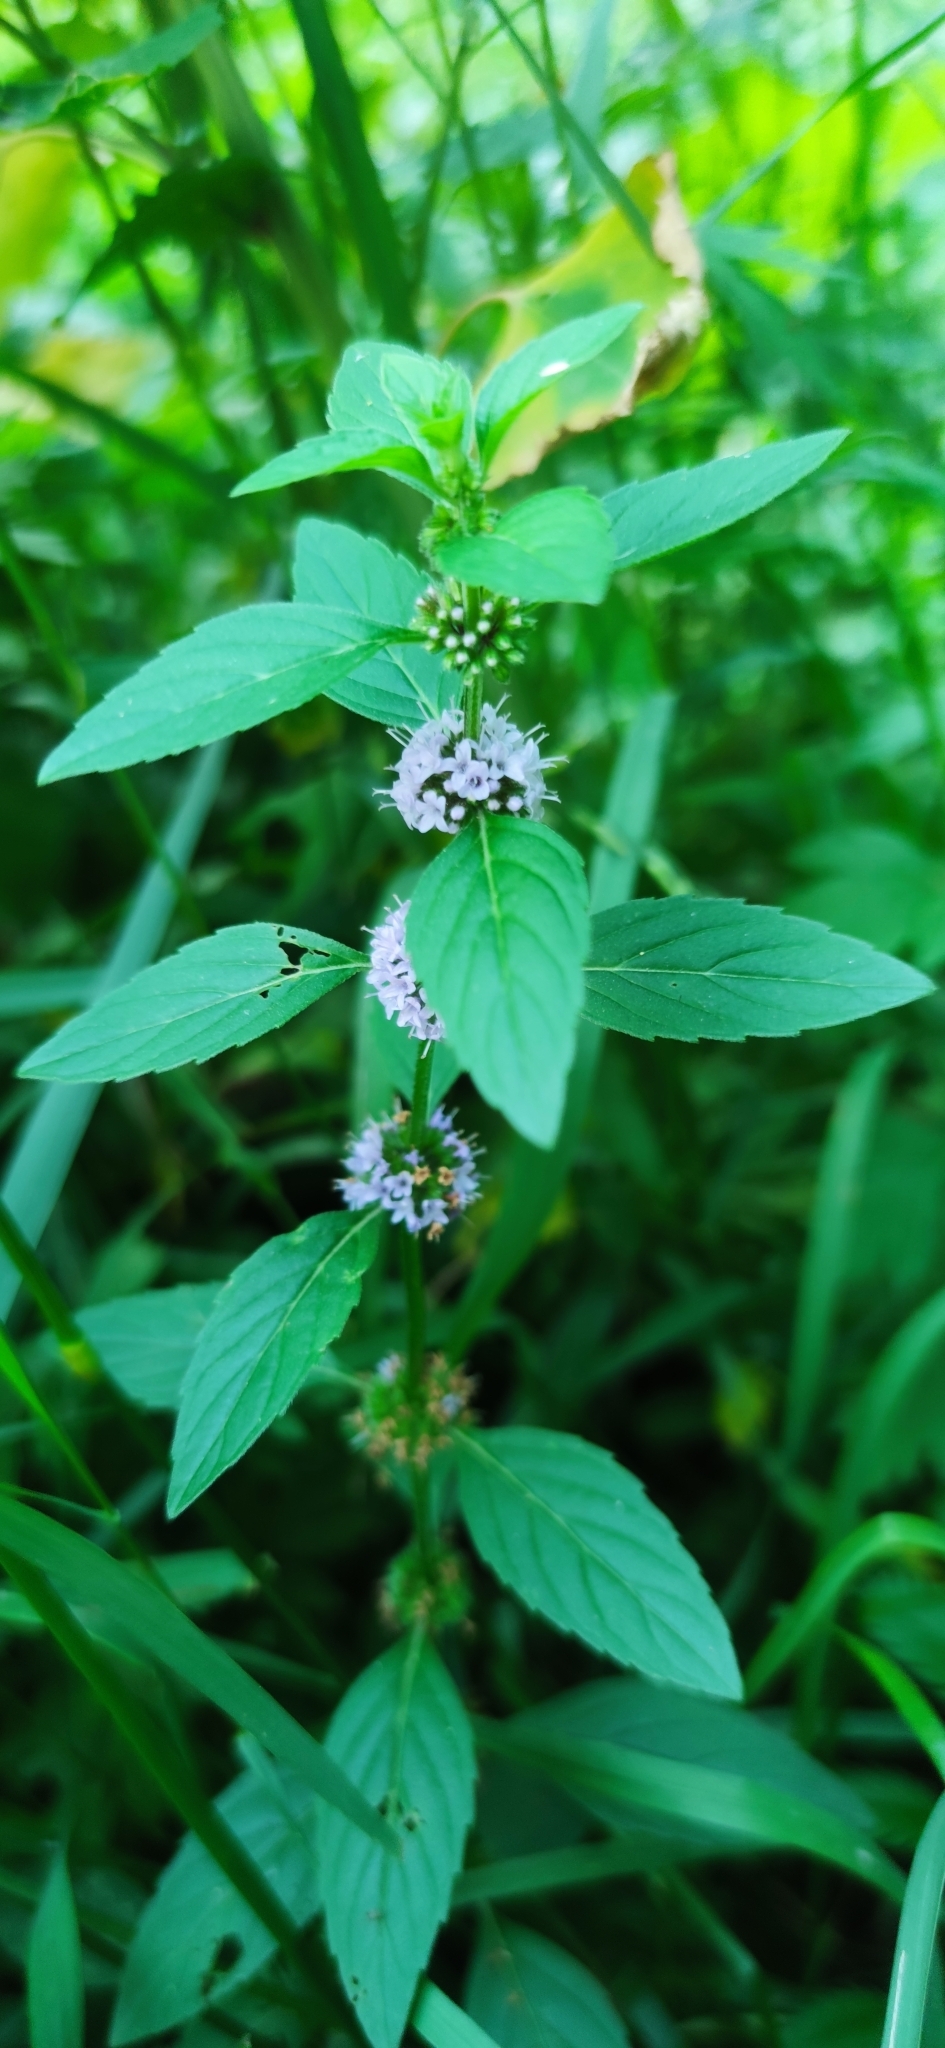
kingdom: Plantae
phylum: Tracheophyta
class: Magnoliopsida
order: Lamiales
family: Lamiaceae
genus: Mentha
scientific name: Mentha arvensis
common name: Corn mint
